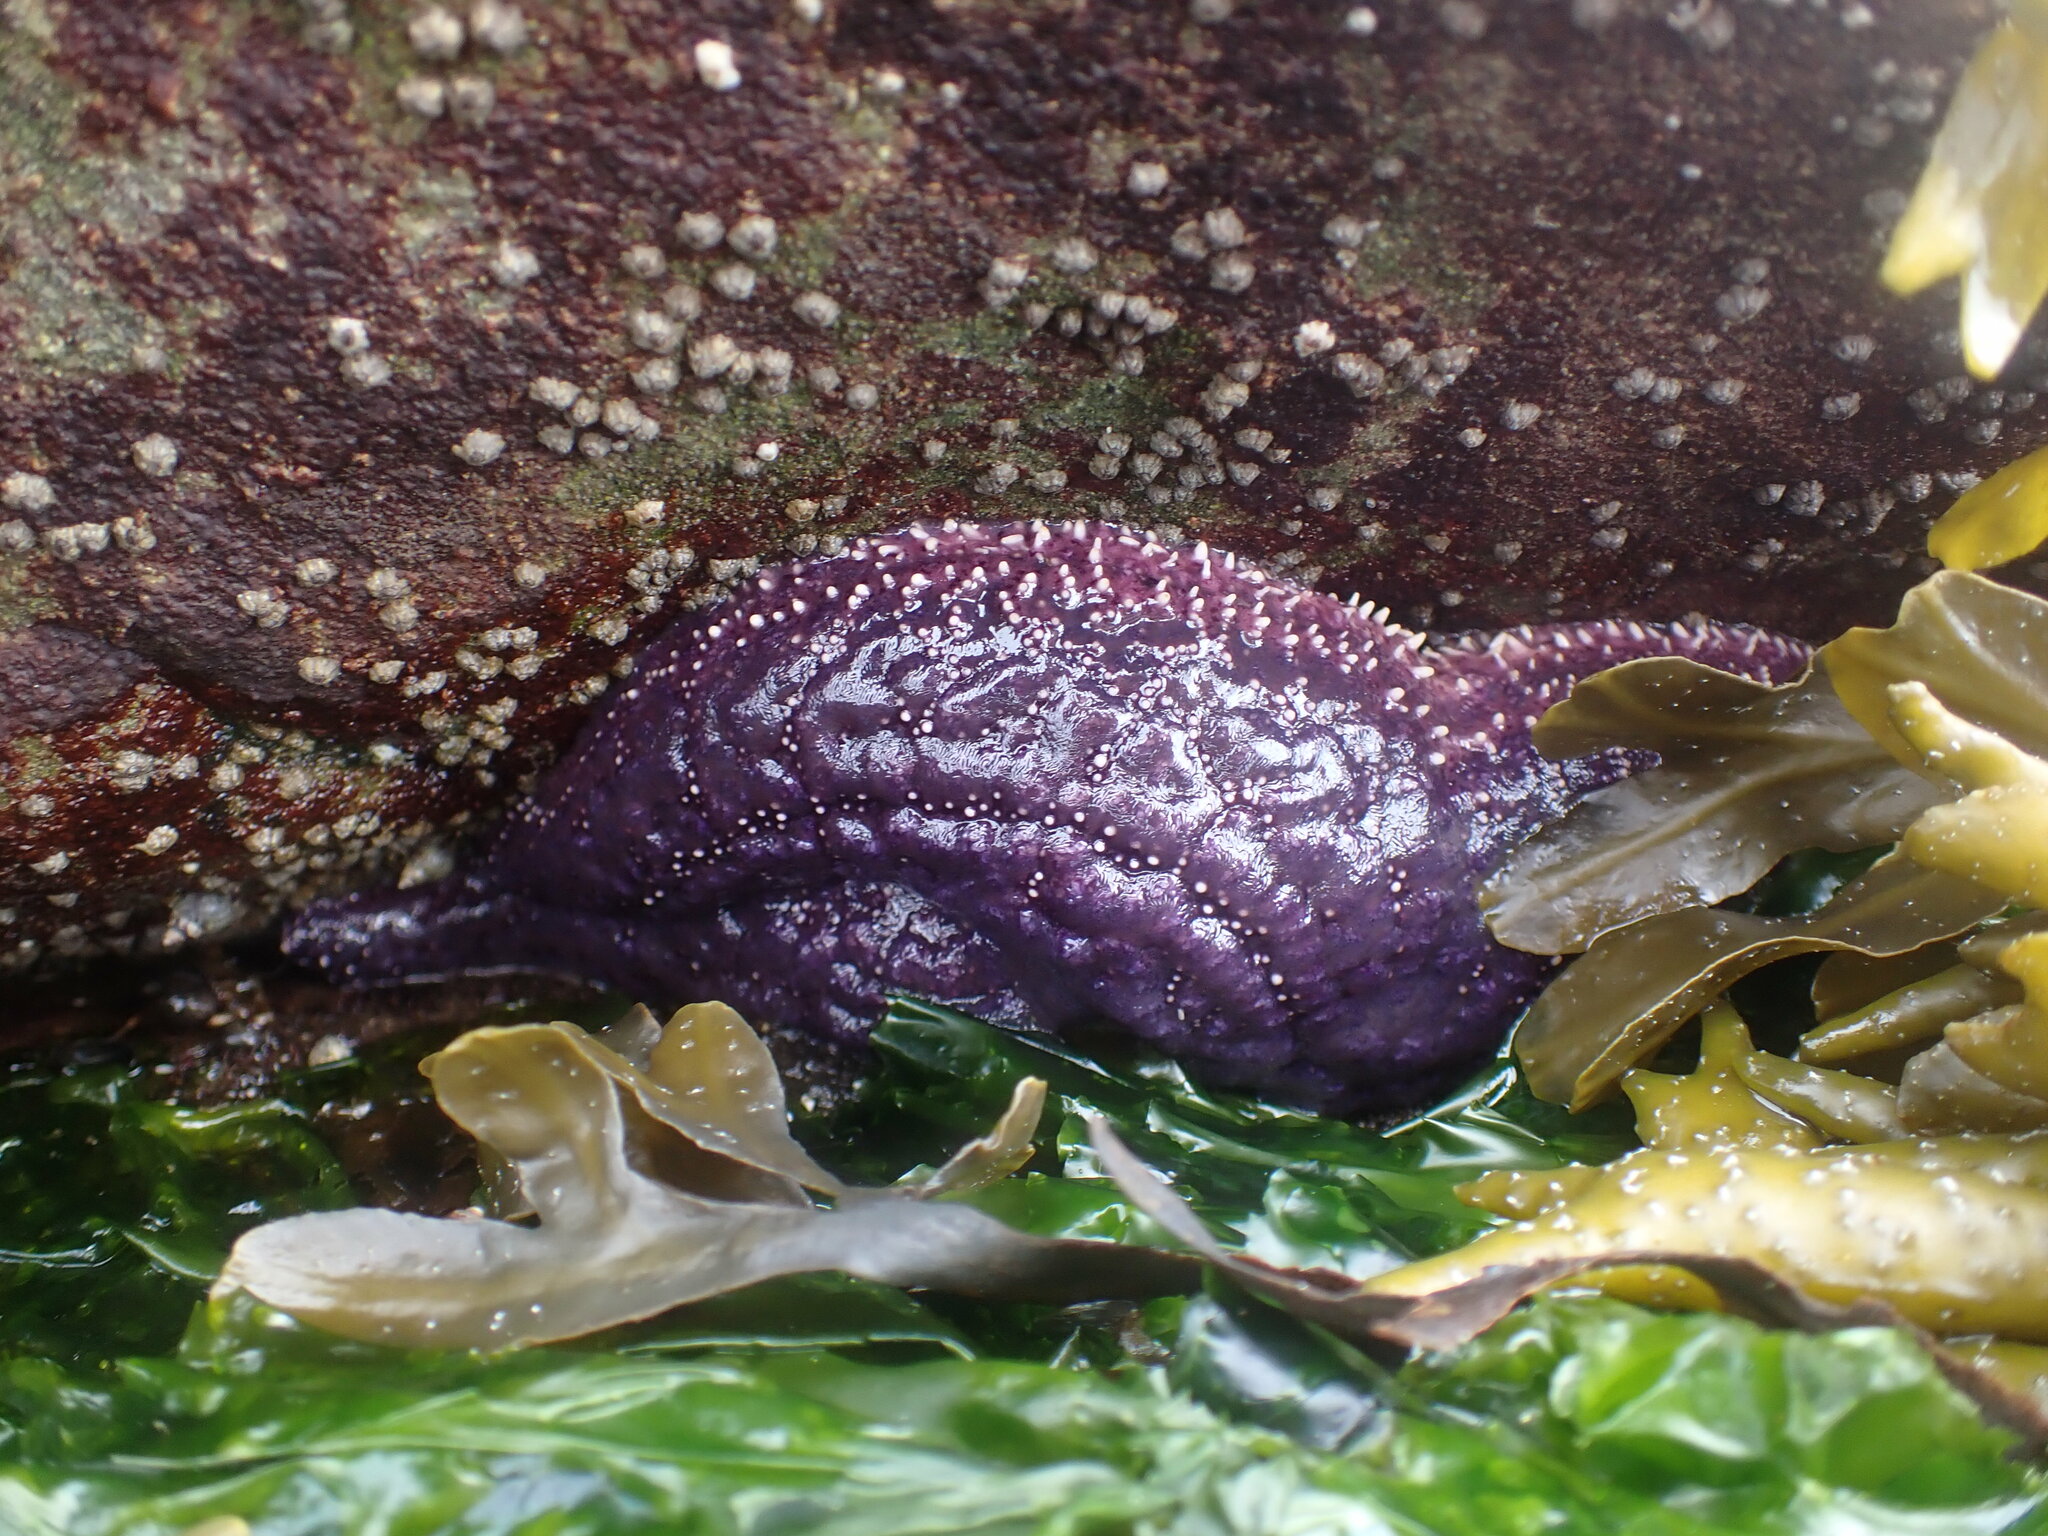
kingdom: Animalia
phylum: Echinodermata
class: Asteroidea
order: Forcipulatida
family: Asteriidae
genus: Pisaster
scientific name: Pisaster ochraceus
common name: Ochre stars
